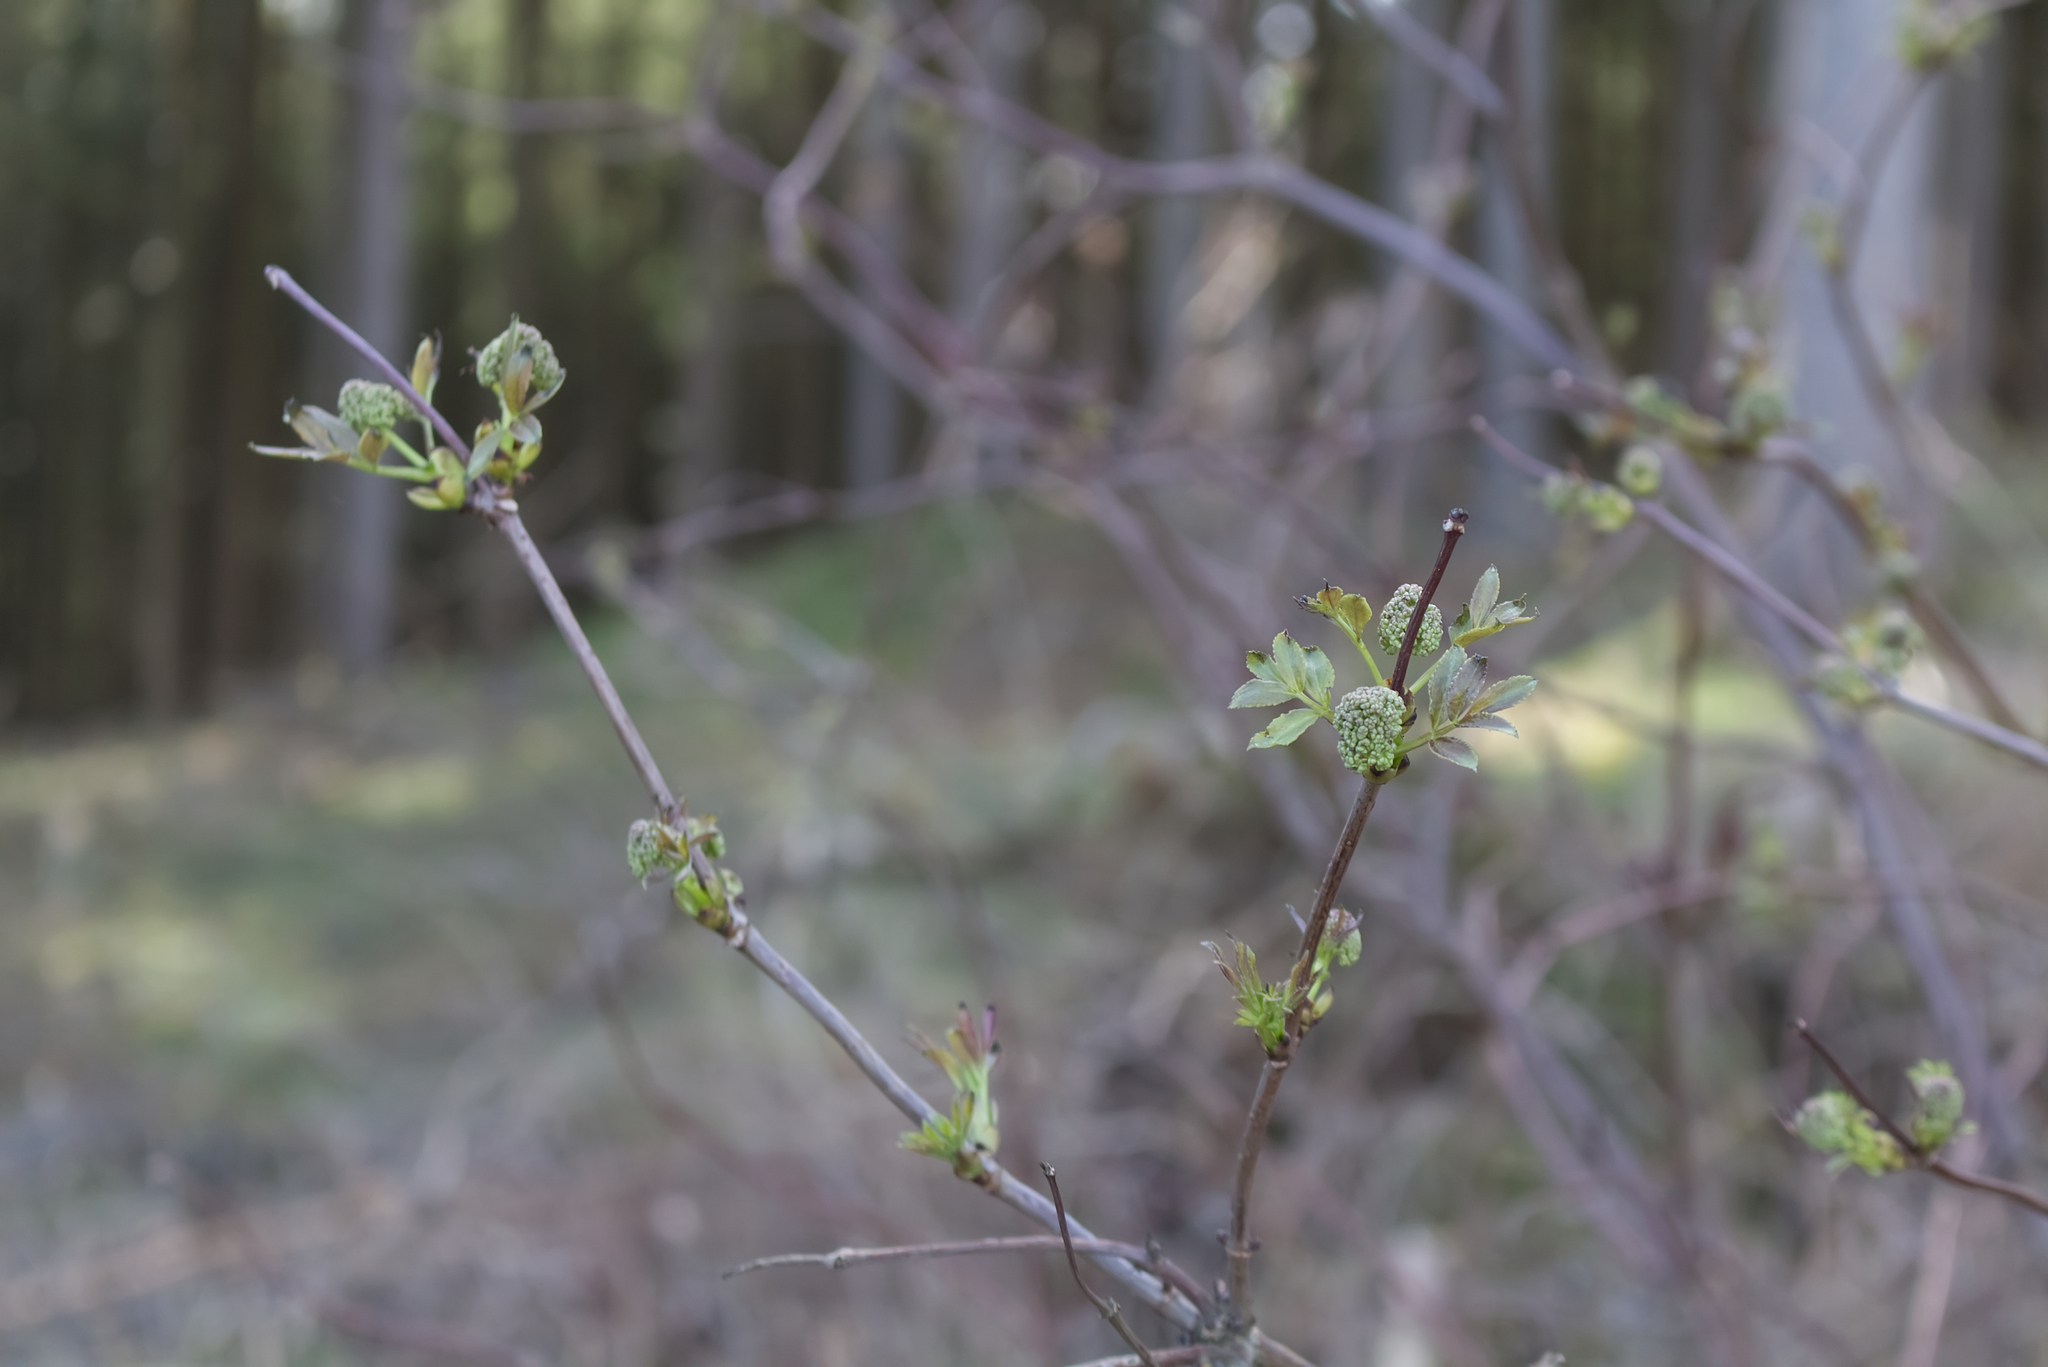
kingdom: Plantae
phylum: Tracheophyta
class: Magnoliopsida
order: Dipsacales
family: Viburnaceae
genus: Sambucus
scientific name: Sambucus racemosa
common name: Red-berried elder
